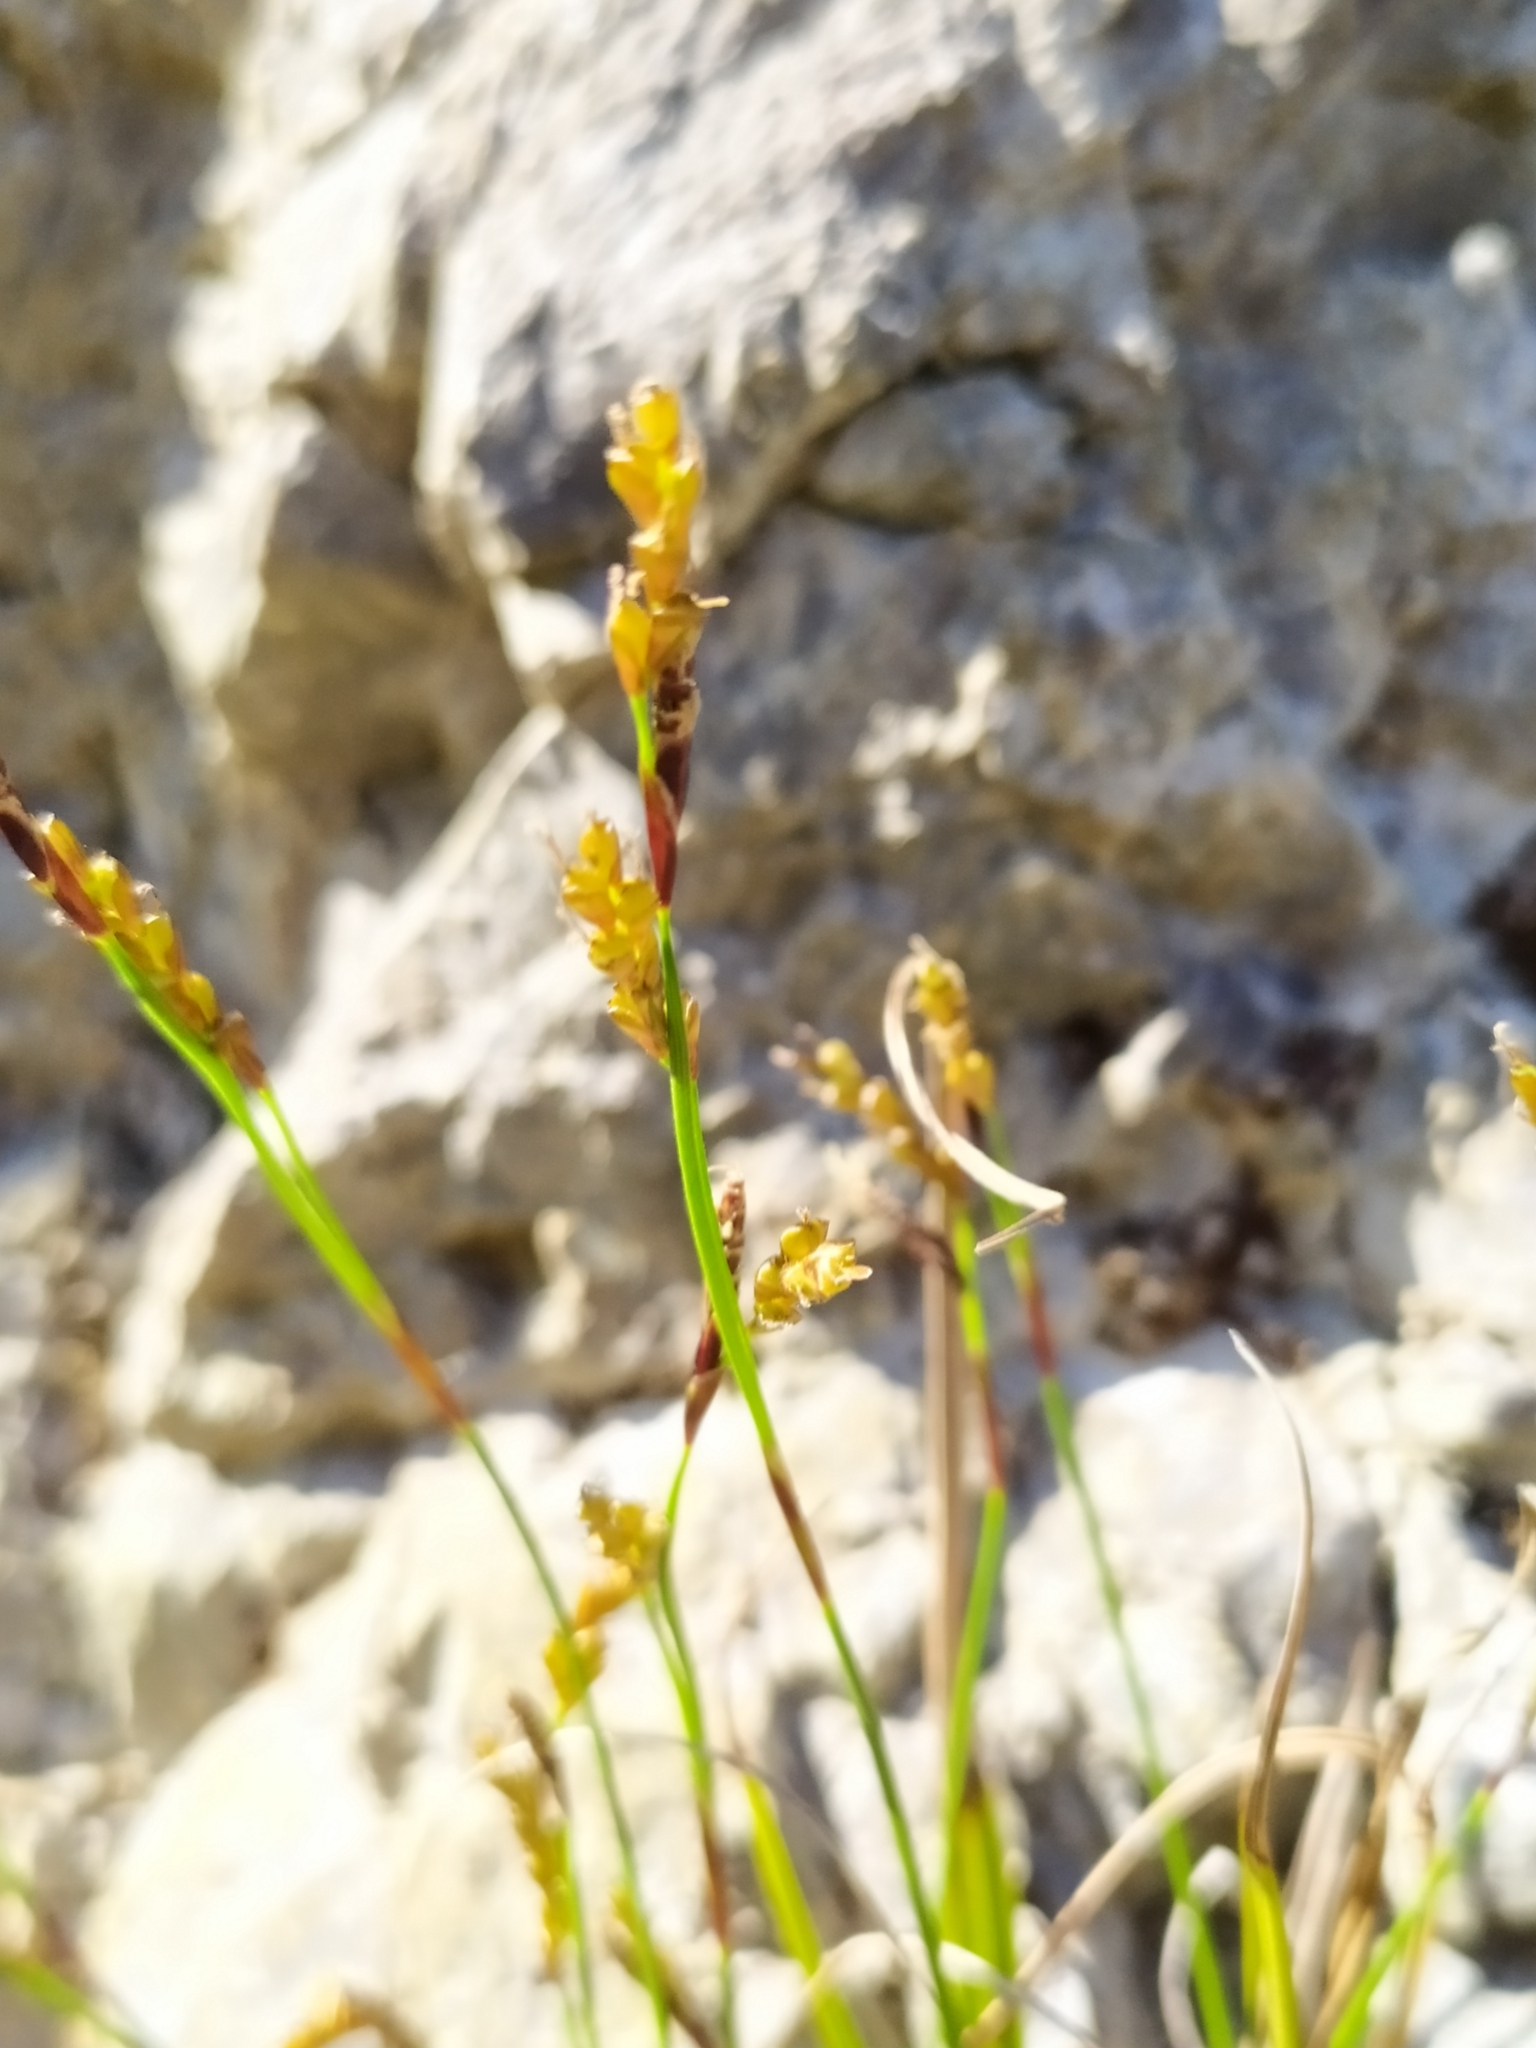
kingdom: Plantae
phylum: Tracheophyta
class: Liliopsida
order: Poales
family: Cyperaceae
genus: Carex
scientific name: Carex digitata
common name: Fingered sedge
